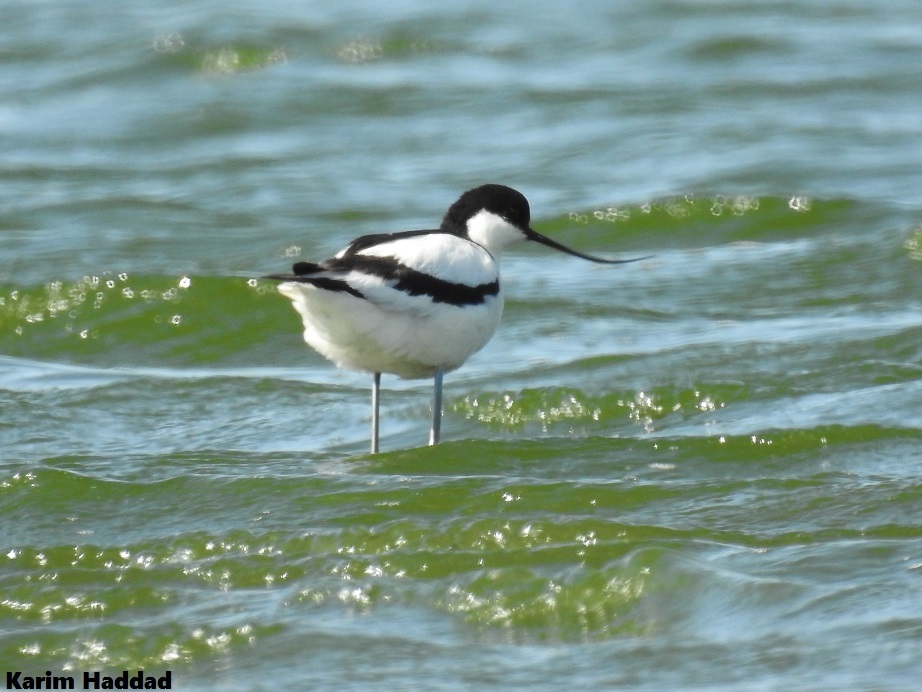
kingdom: Animalia
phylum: Chordata
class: Aves
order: Charadriiformes
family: Recurvirostridae
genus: Recurvirostra
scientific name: Recurvirostra avosetta
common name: Pied avocet
